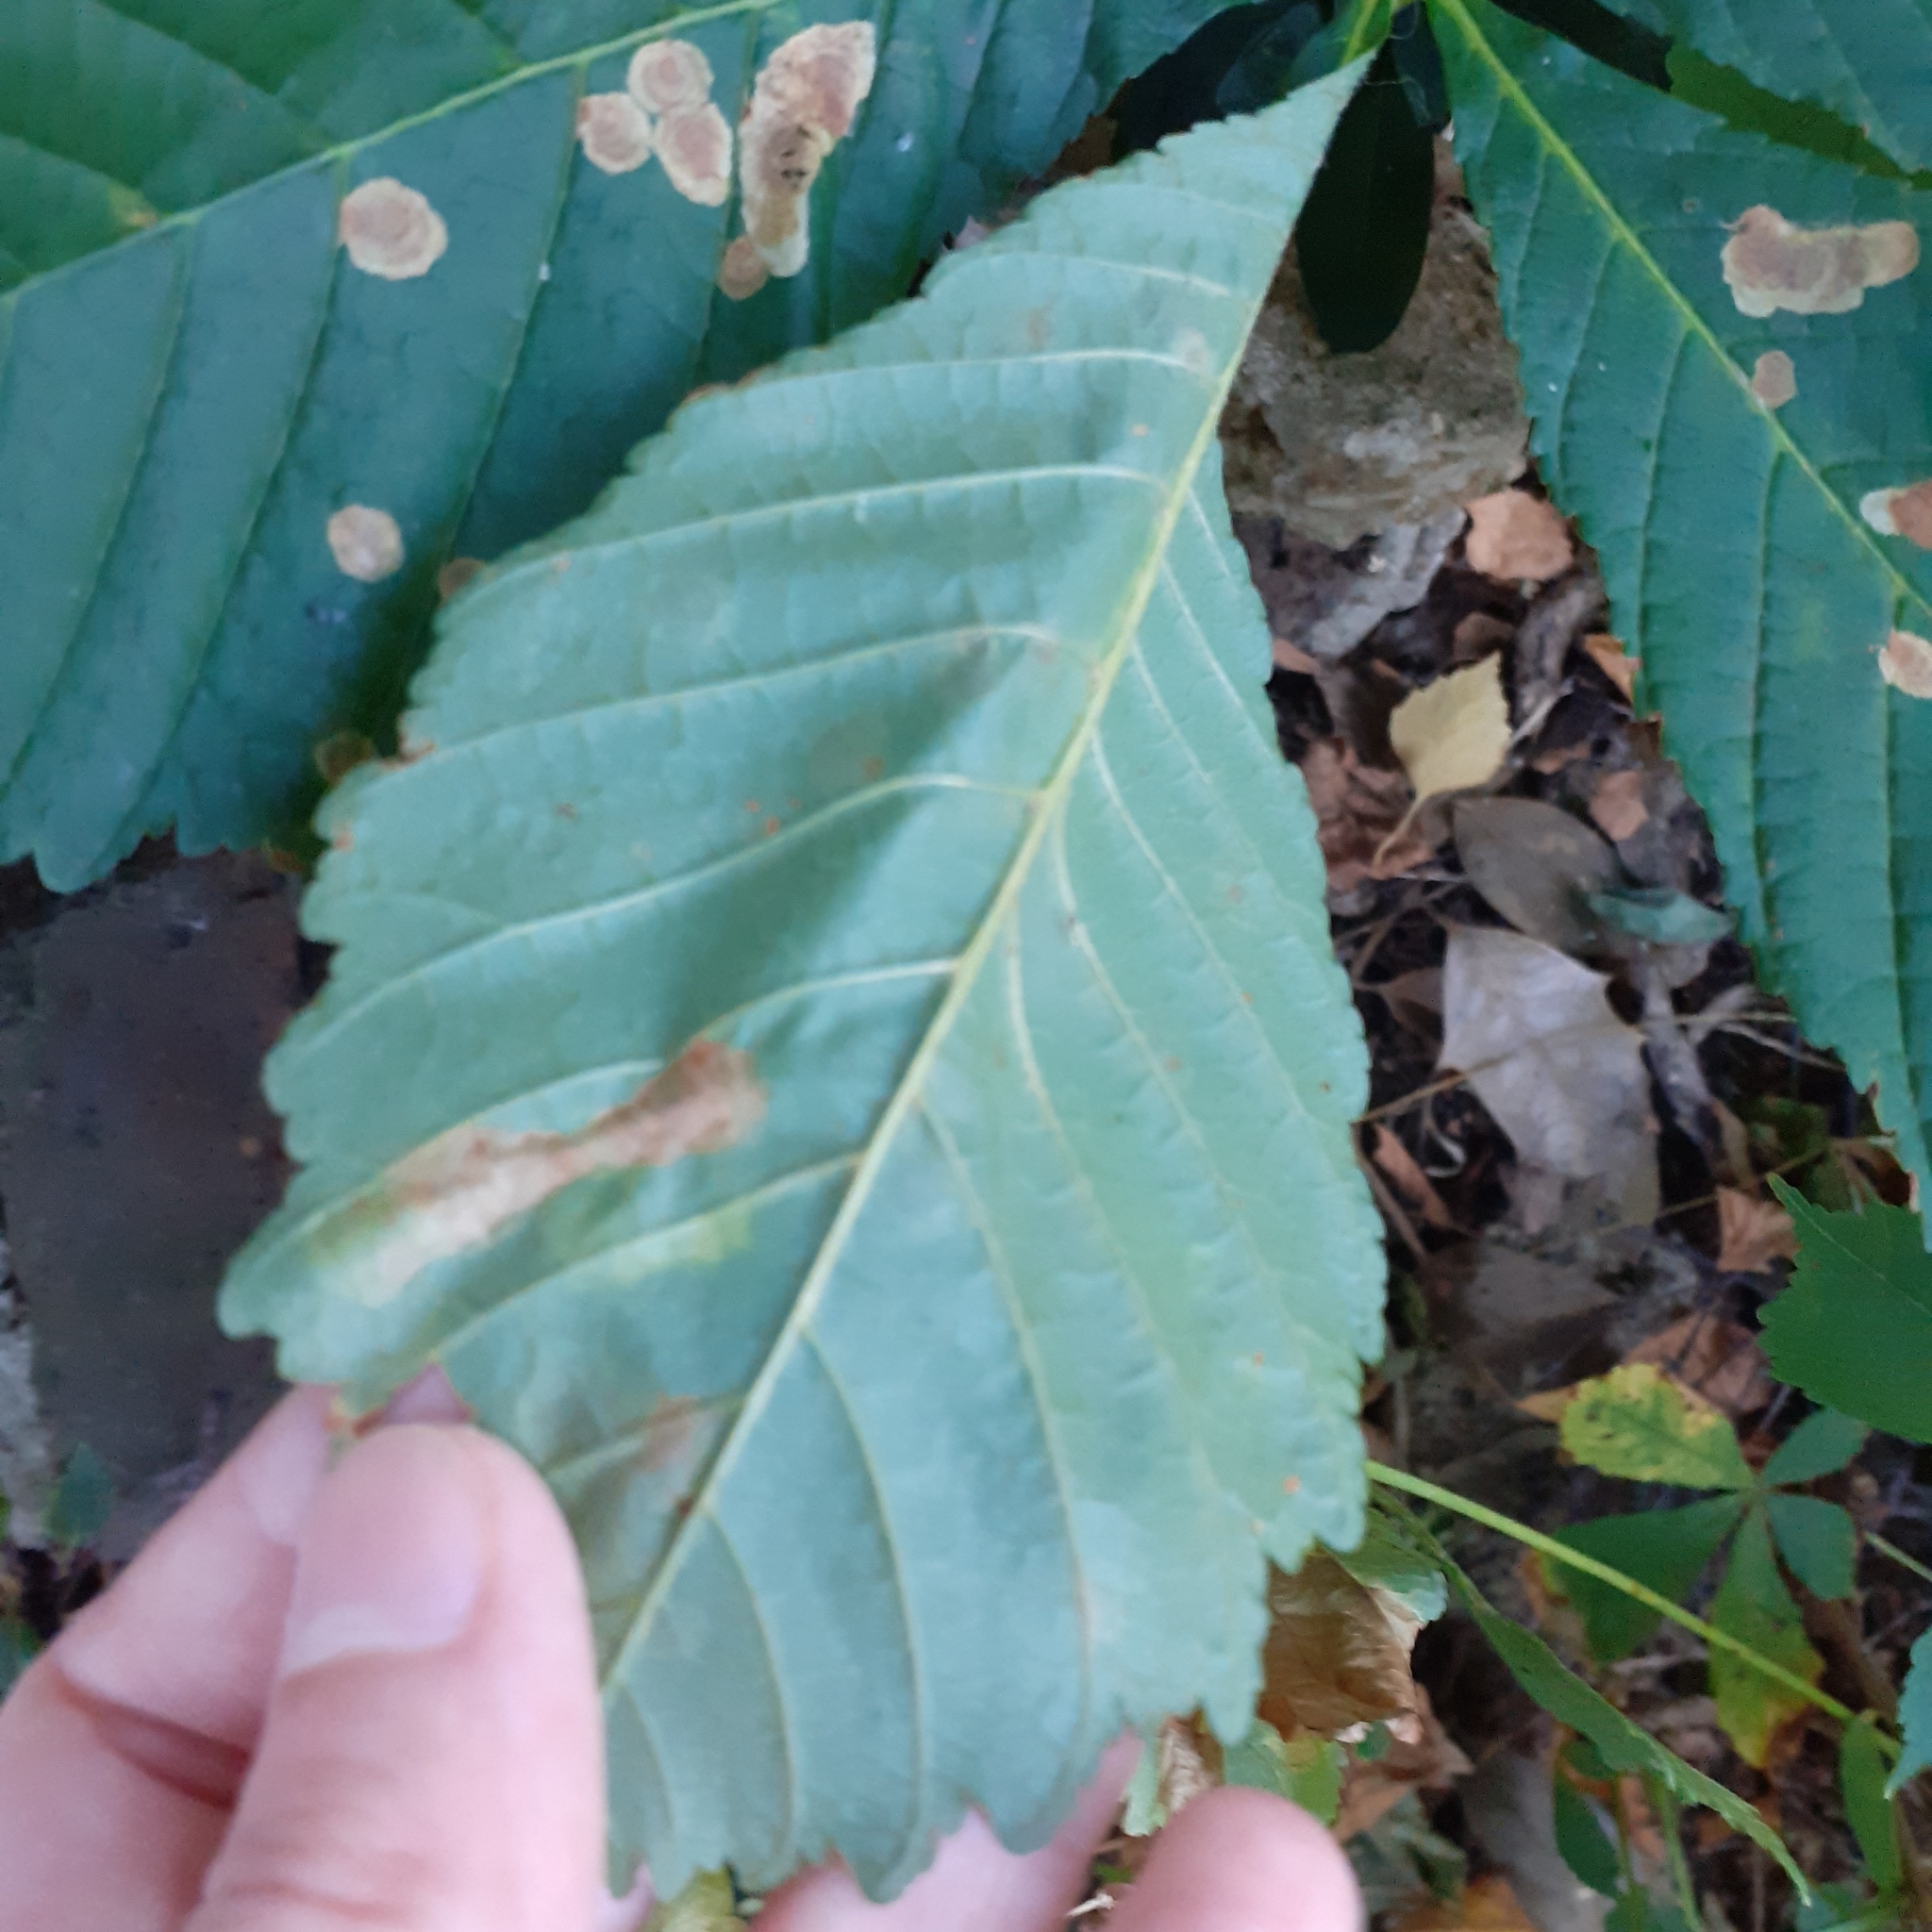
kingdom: Animalia
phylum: Arthropoda
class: Insecta
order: Lepidoptera
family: Gracillariidae
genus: Cameraria
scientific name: Cameraria ohridella
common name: Horse-chestnut leaf-miner
